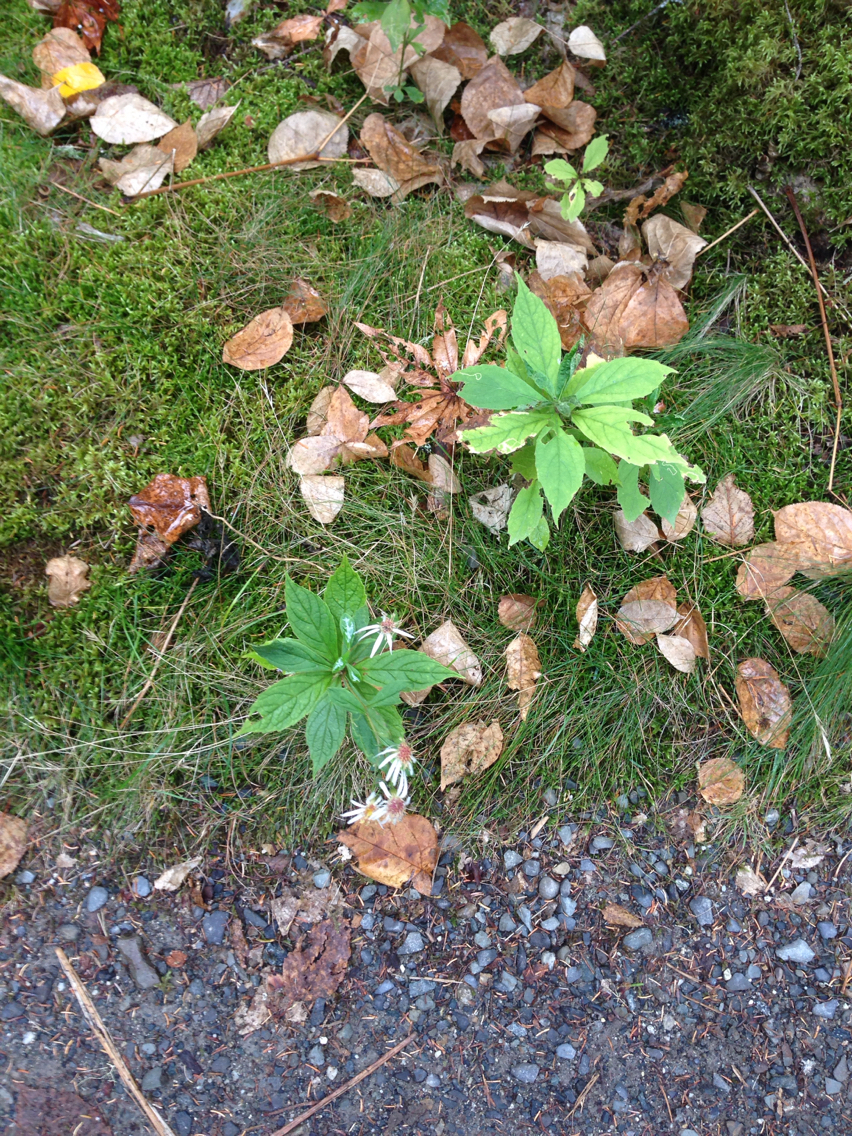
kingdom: Plantae
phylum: Tracheophyta
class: Magnoliopsida
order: Asterales
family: Asteraceae
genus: Oclemena
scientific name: Oclemena acuminata
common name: Mountain aster
